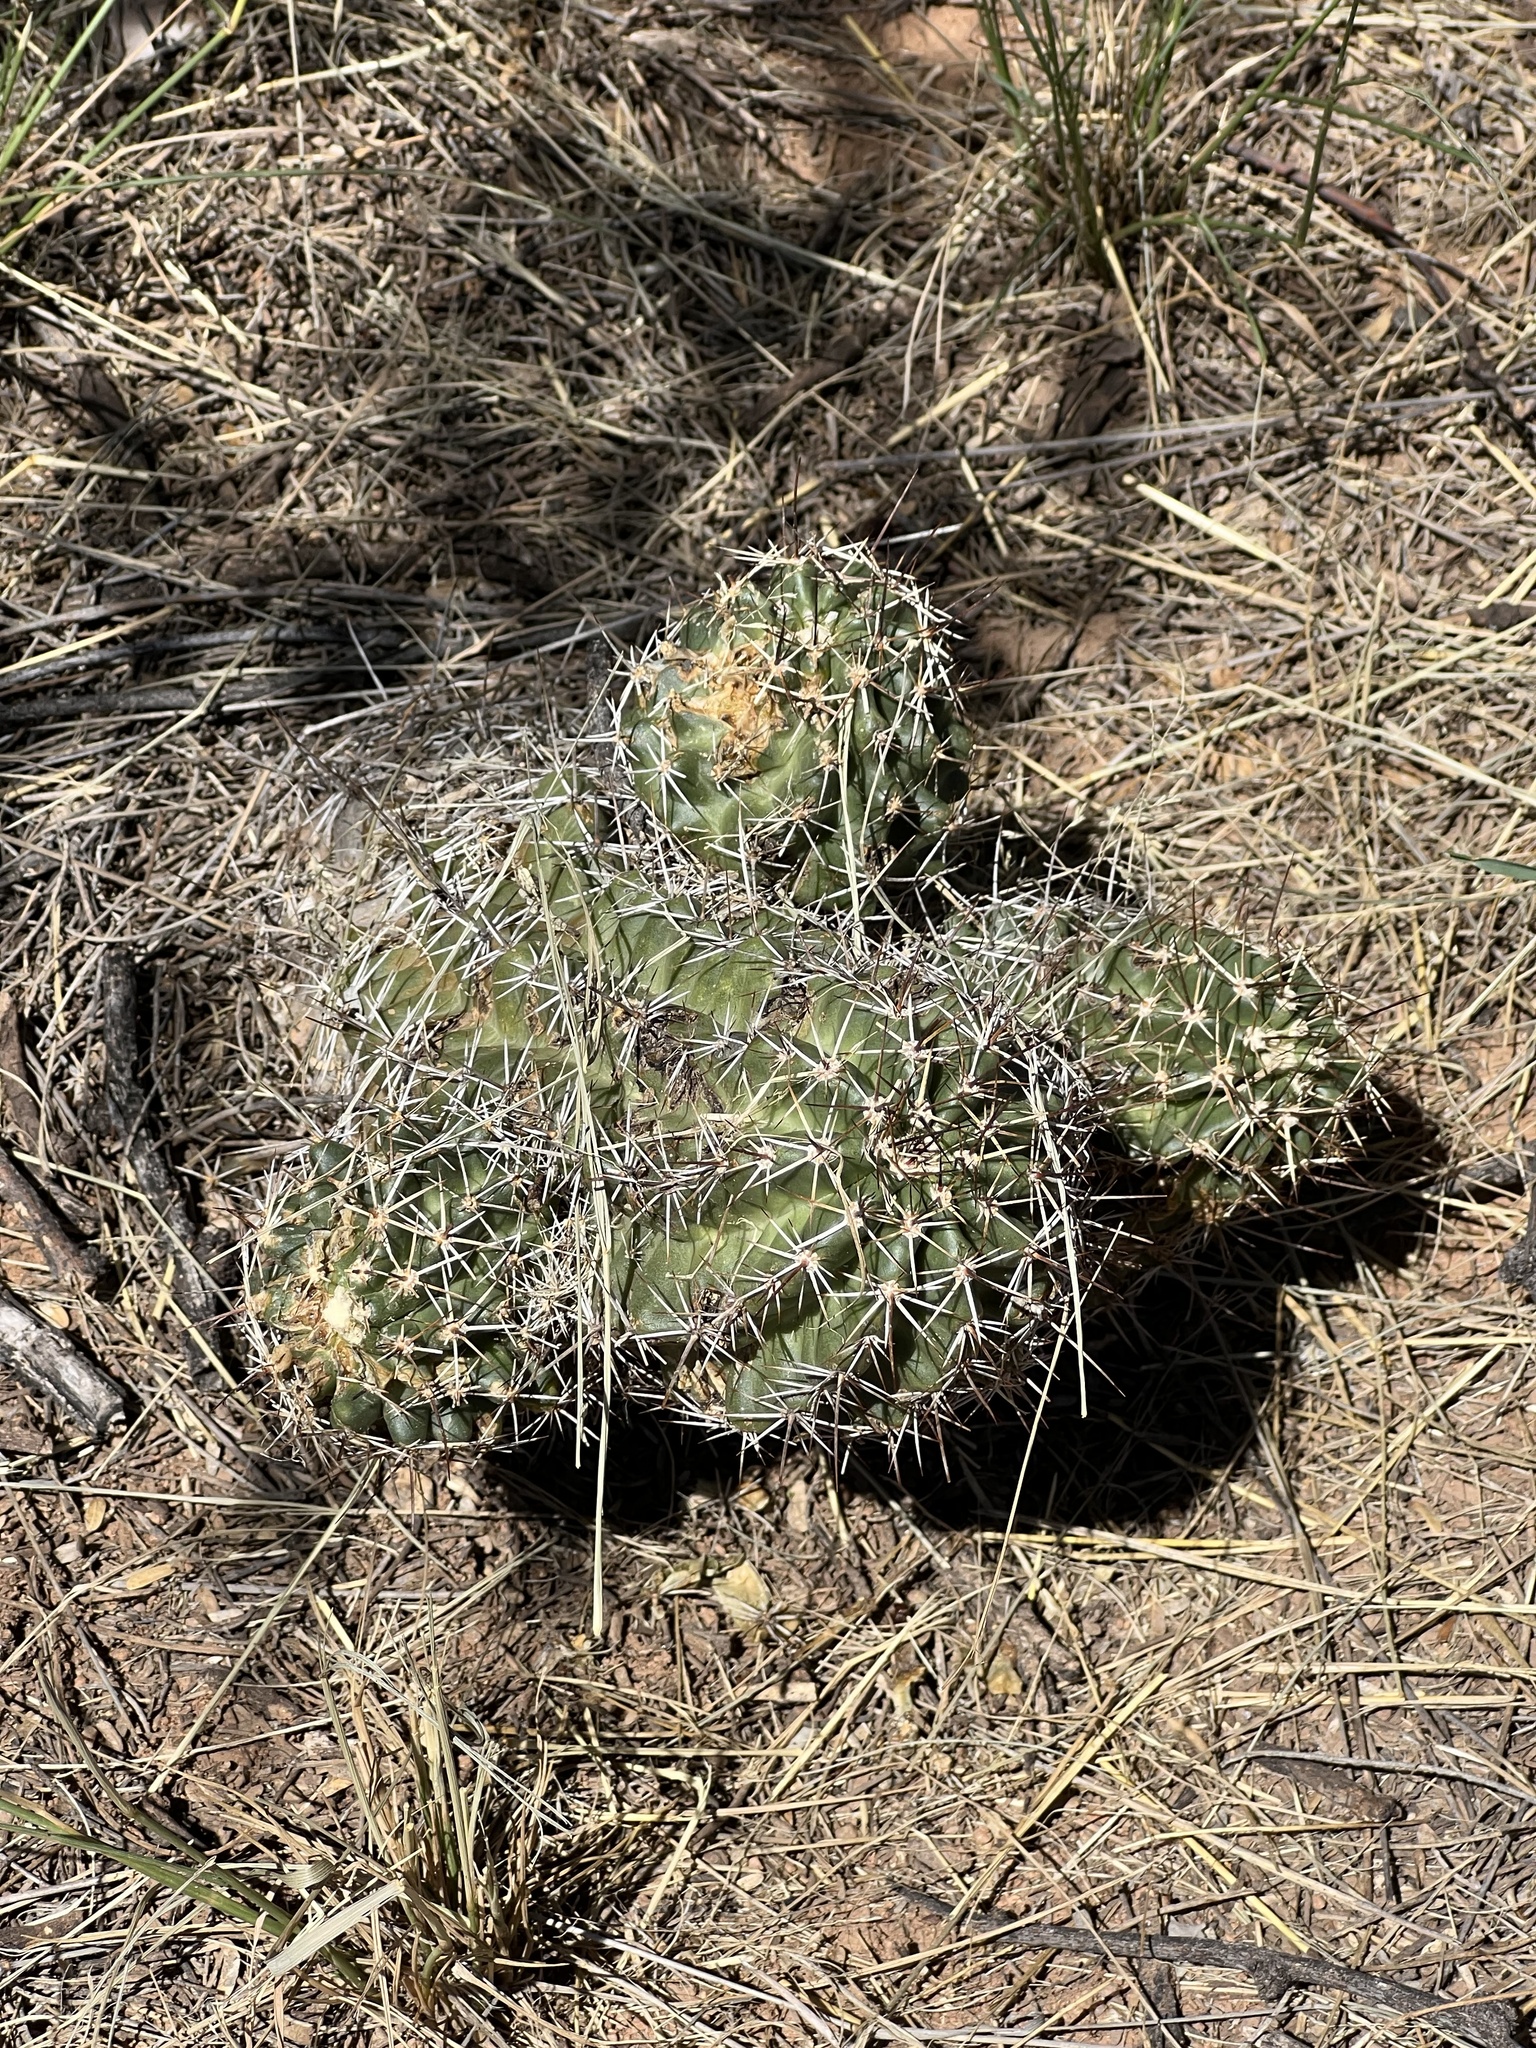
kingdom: Plantae
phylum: Tracheophyta
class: Magnoliopsida
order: Caryophyllales
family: Cactaceae
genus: Echinocereus
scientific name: Echinocereus fendleri
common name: Fendler's hedgehog cactus
